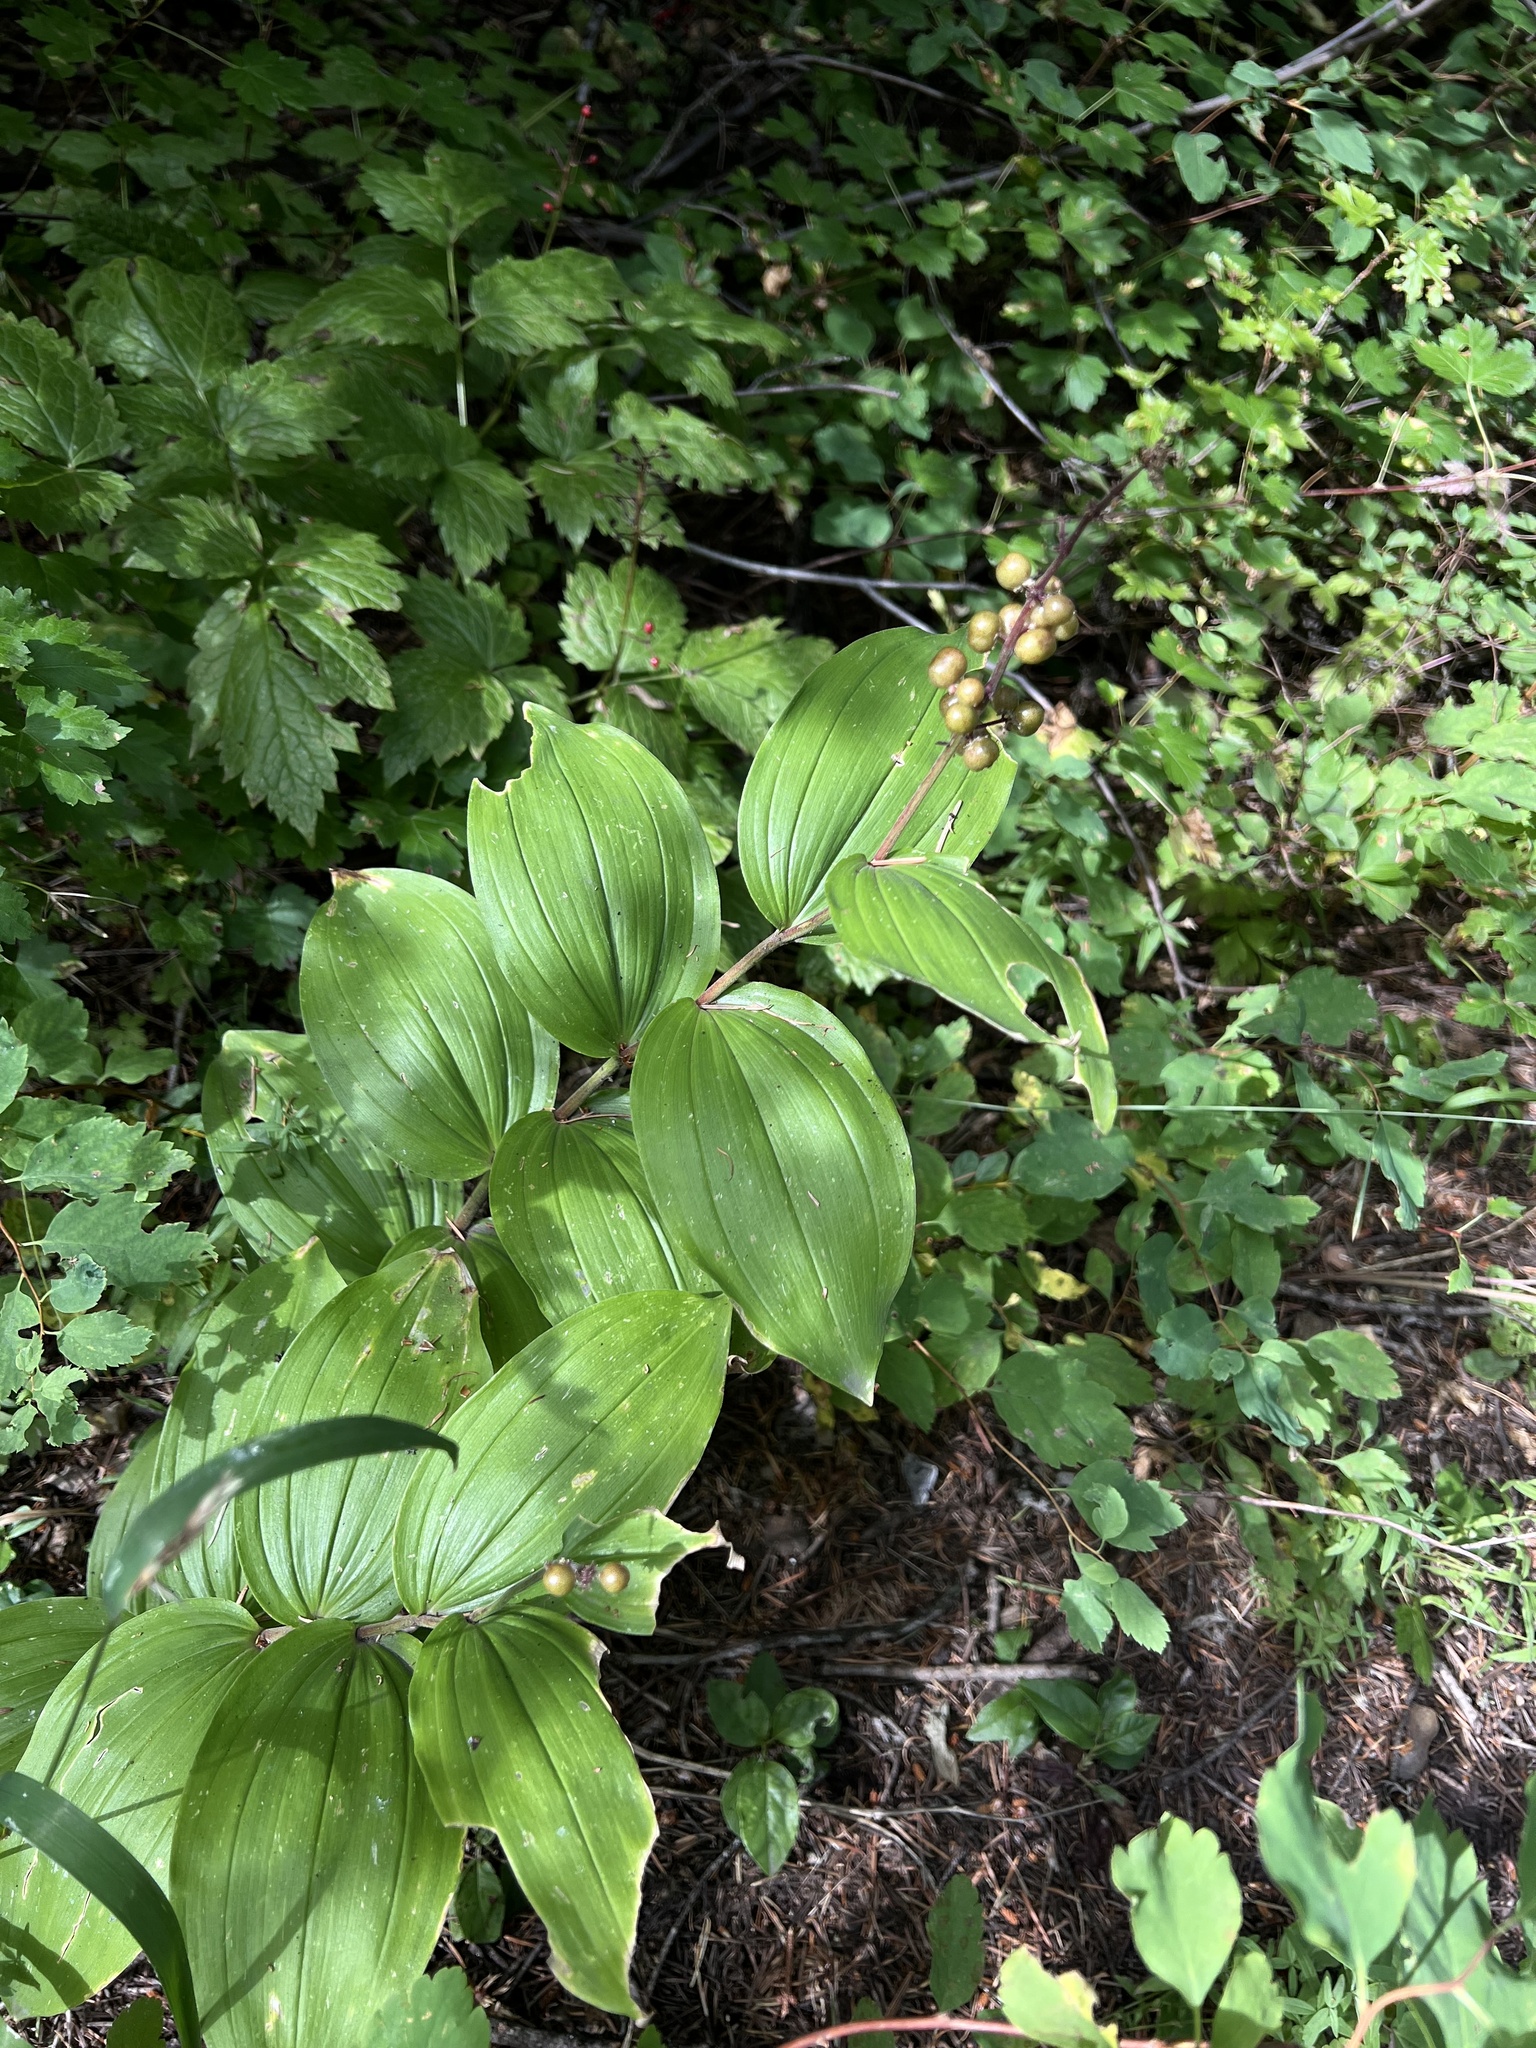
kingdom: Plantae
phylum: Tracheophyta
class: Liliopsida
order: Asparagales
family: Asparagaceae
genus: Maianthemum
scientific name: Maianthemum racemosum
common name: False spikenard
